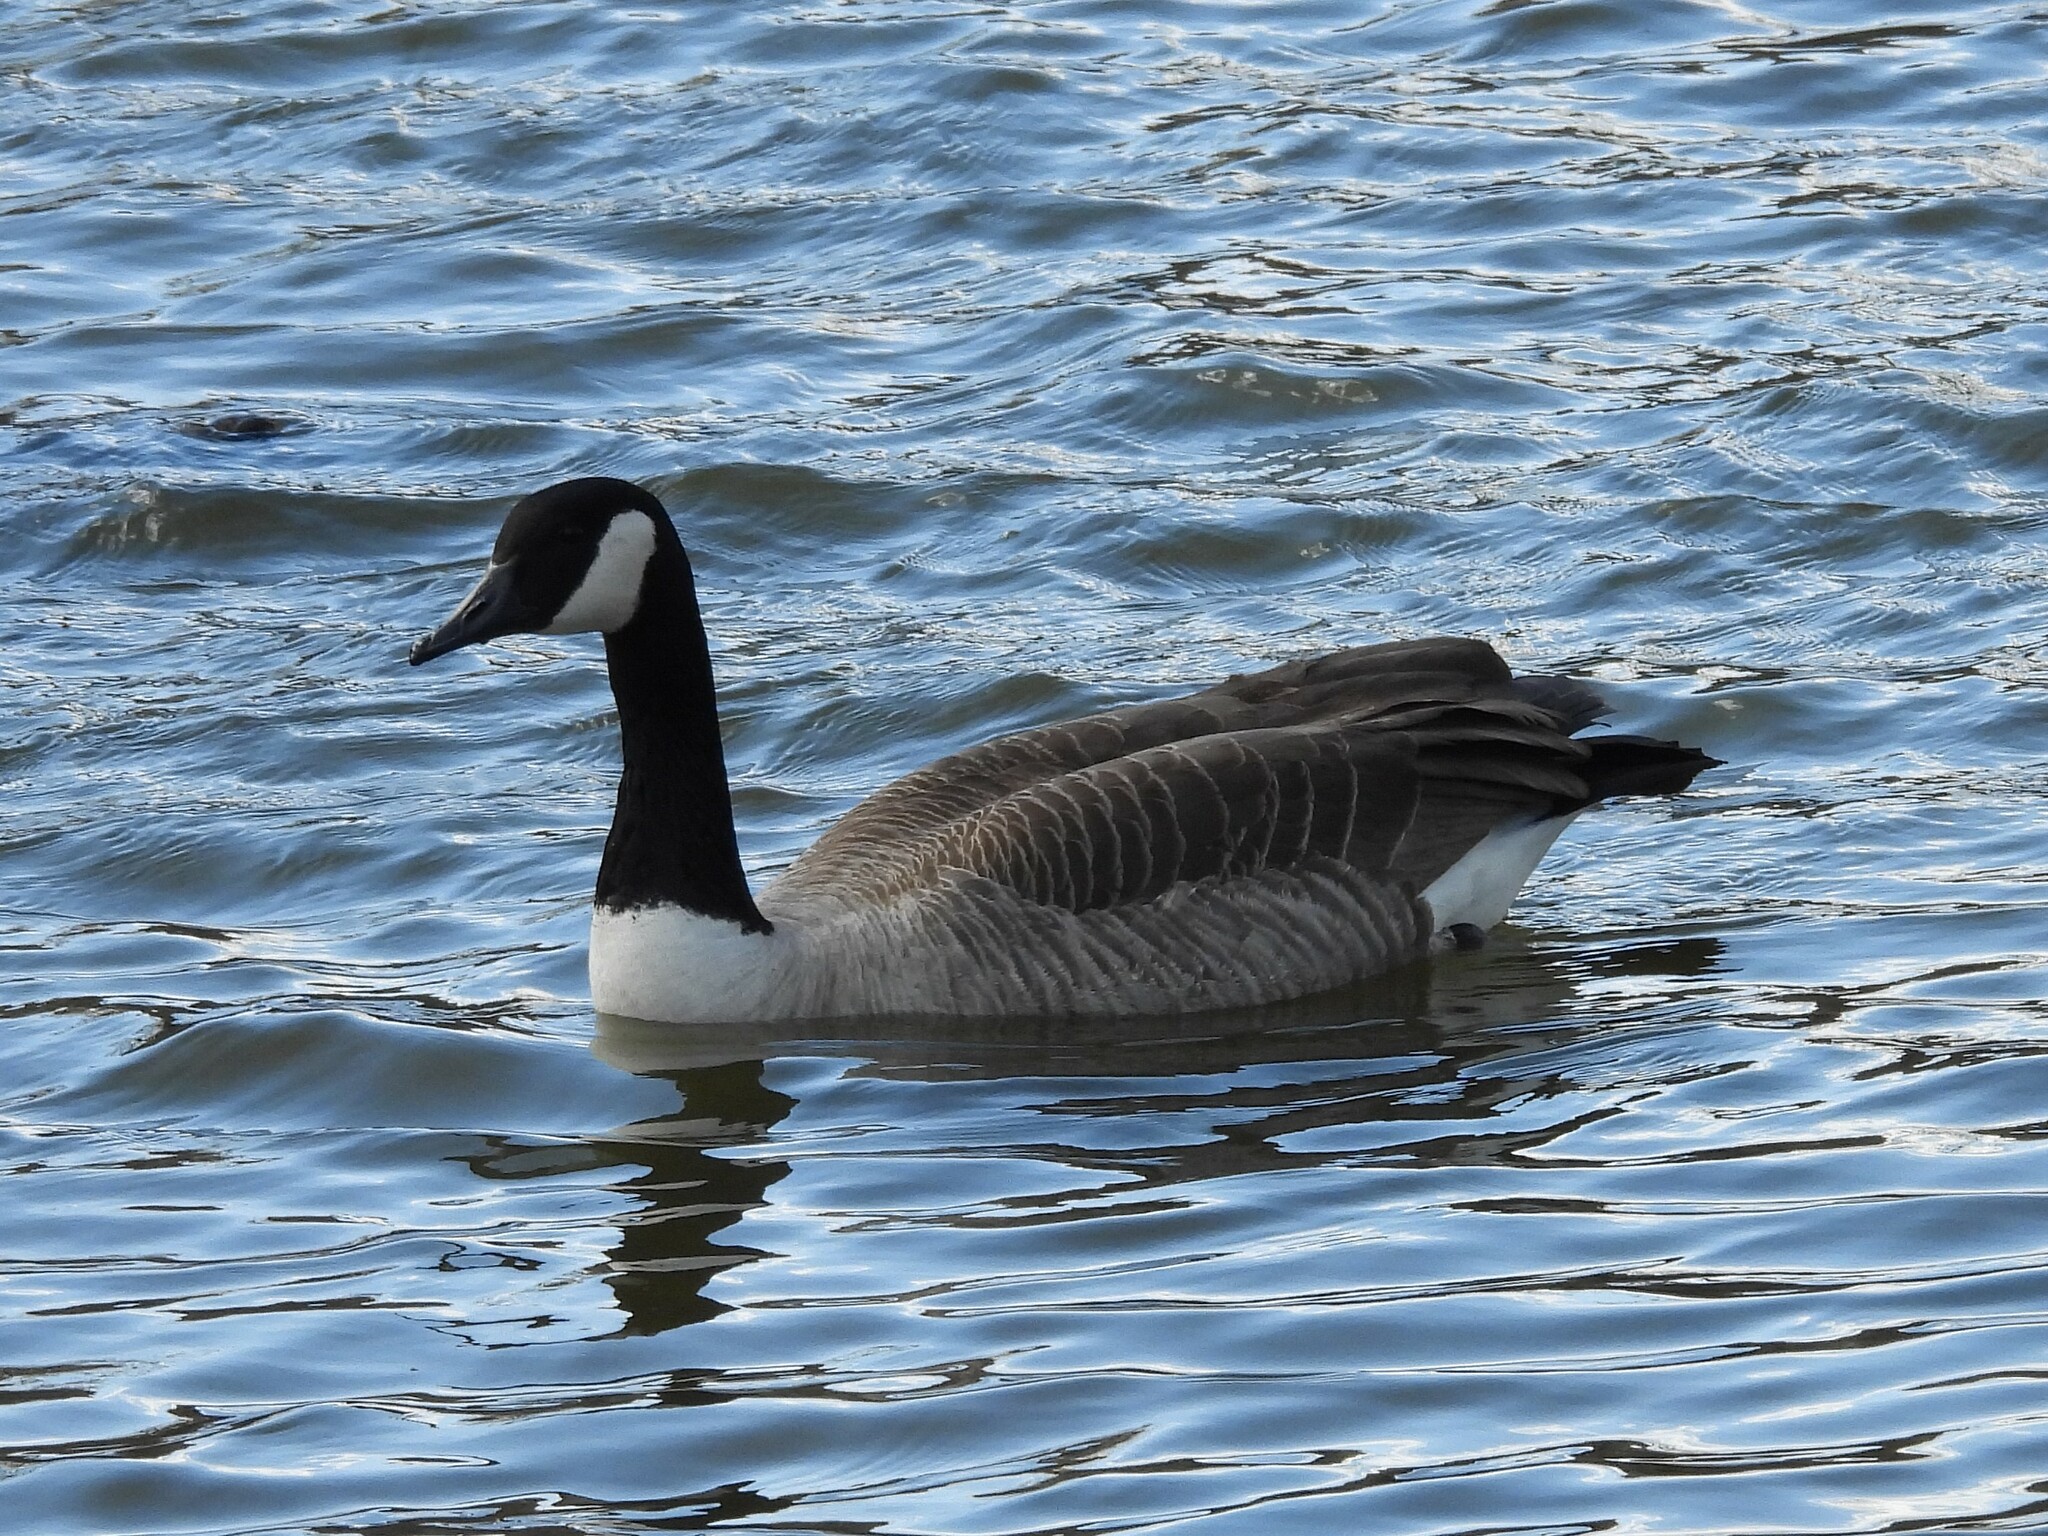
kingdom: Animalia
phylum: Chordata
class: Aves
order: Anseriformes
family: Anatidae
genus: Branta
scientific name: Branta canadensis
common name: Canada goose
